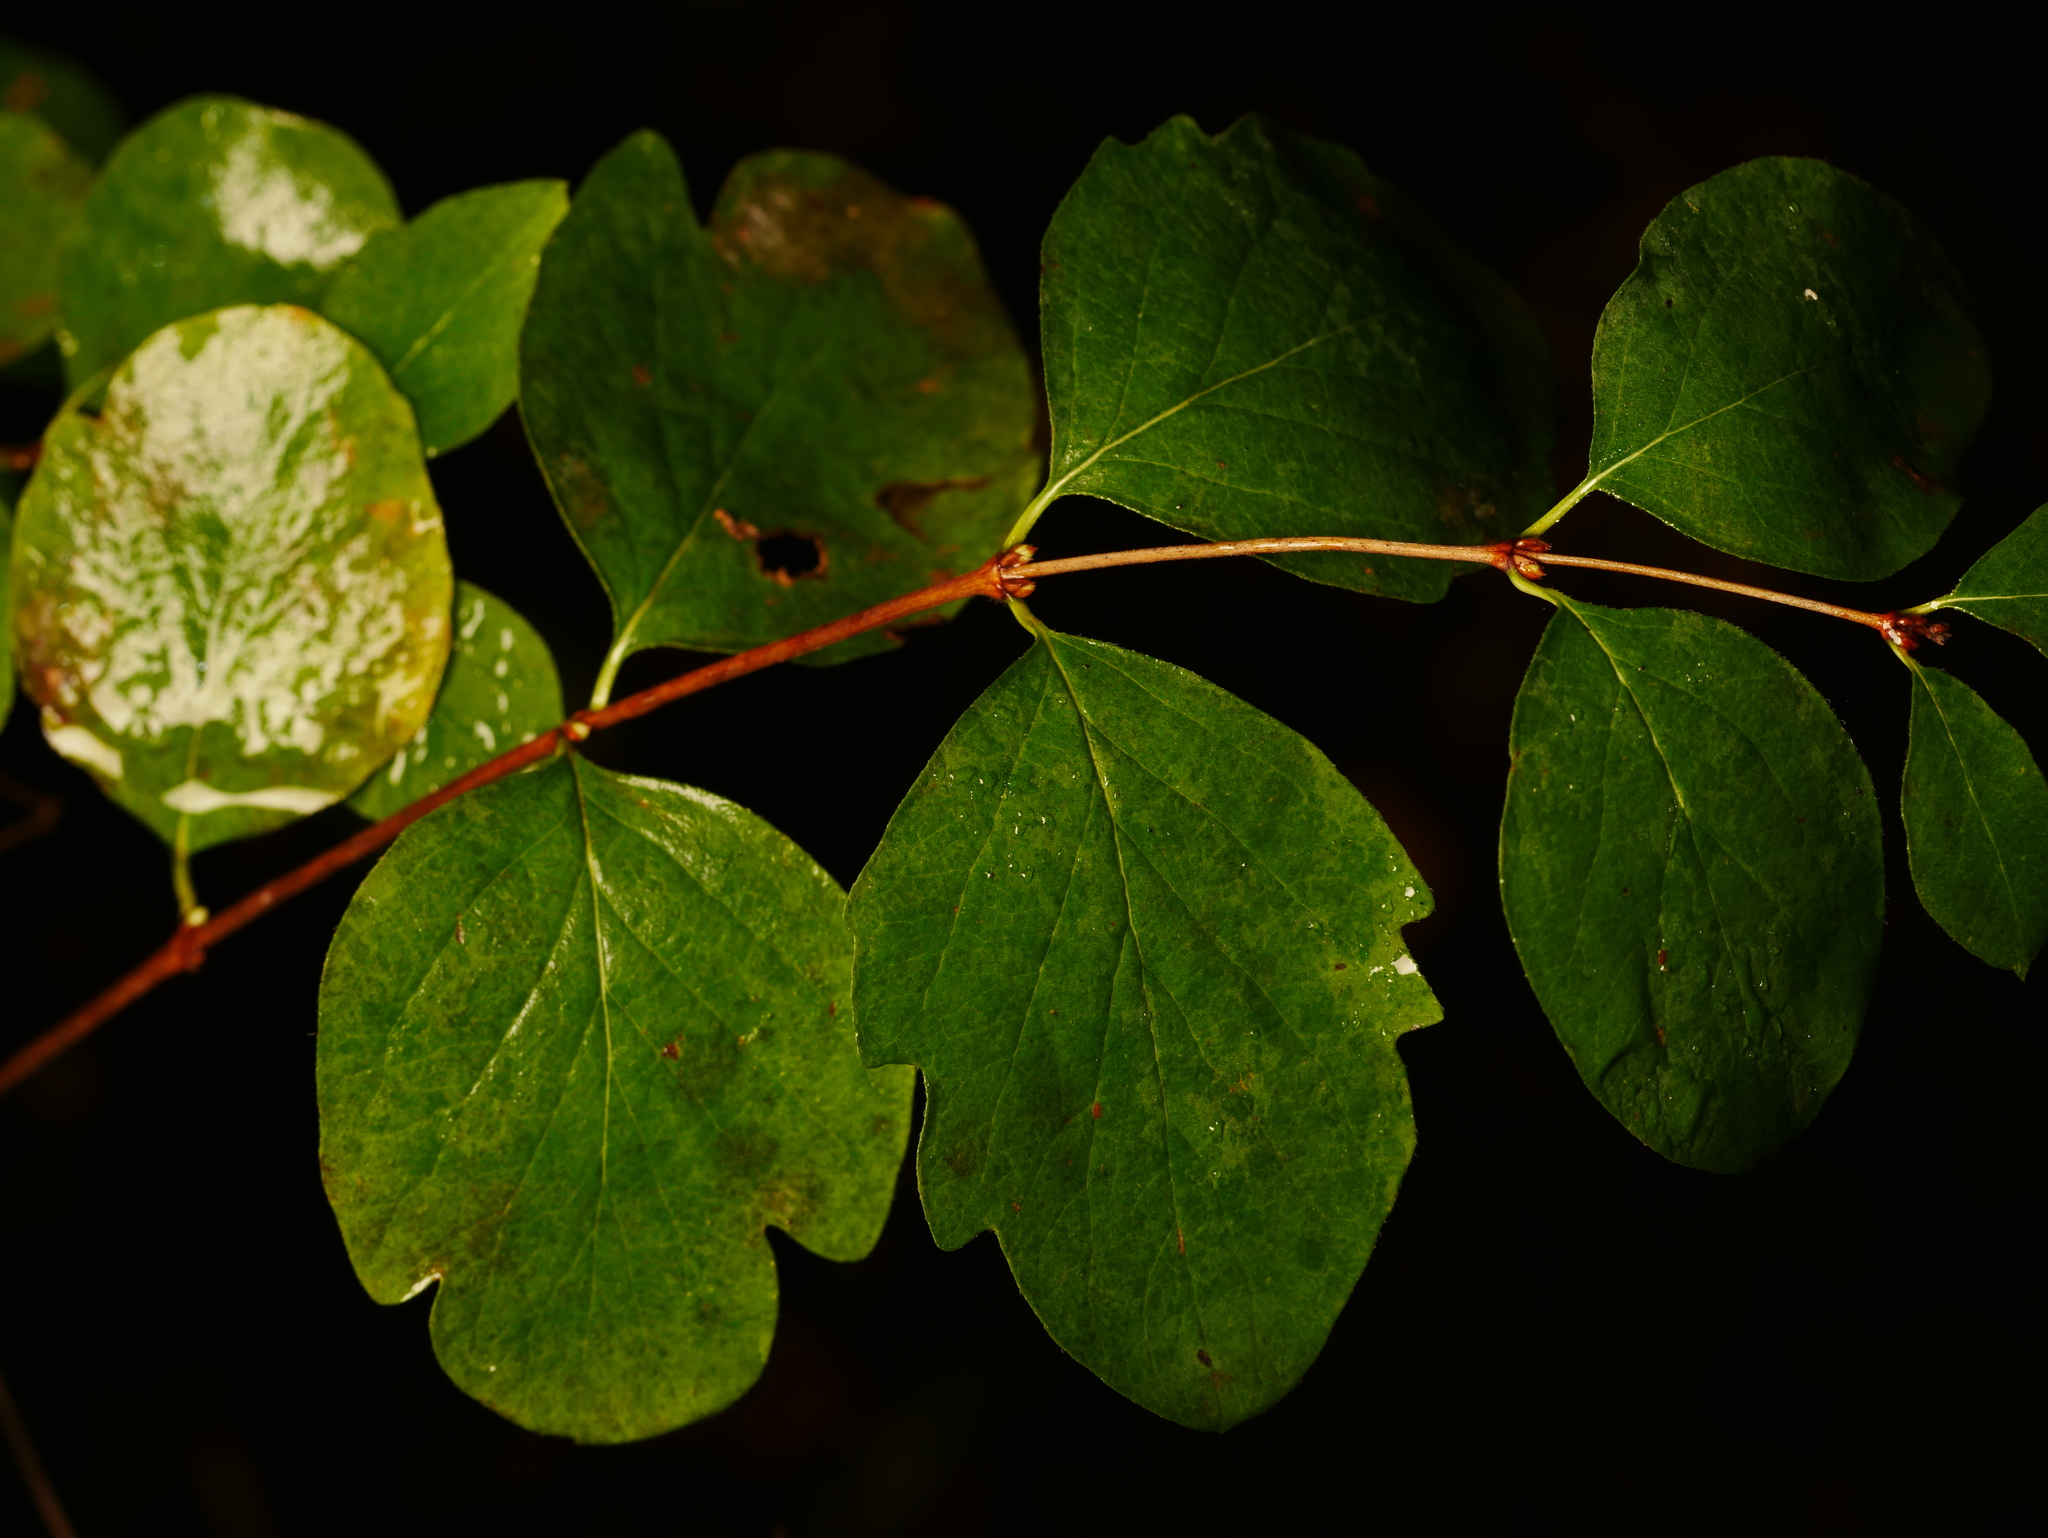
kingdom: Plantae
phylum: Tracheophyta
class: Magnoliopsida
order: Dipsacales
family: Caprifoliaceae
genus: Symphoricarpos
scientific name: Symphoricarpos albus
